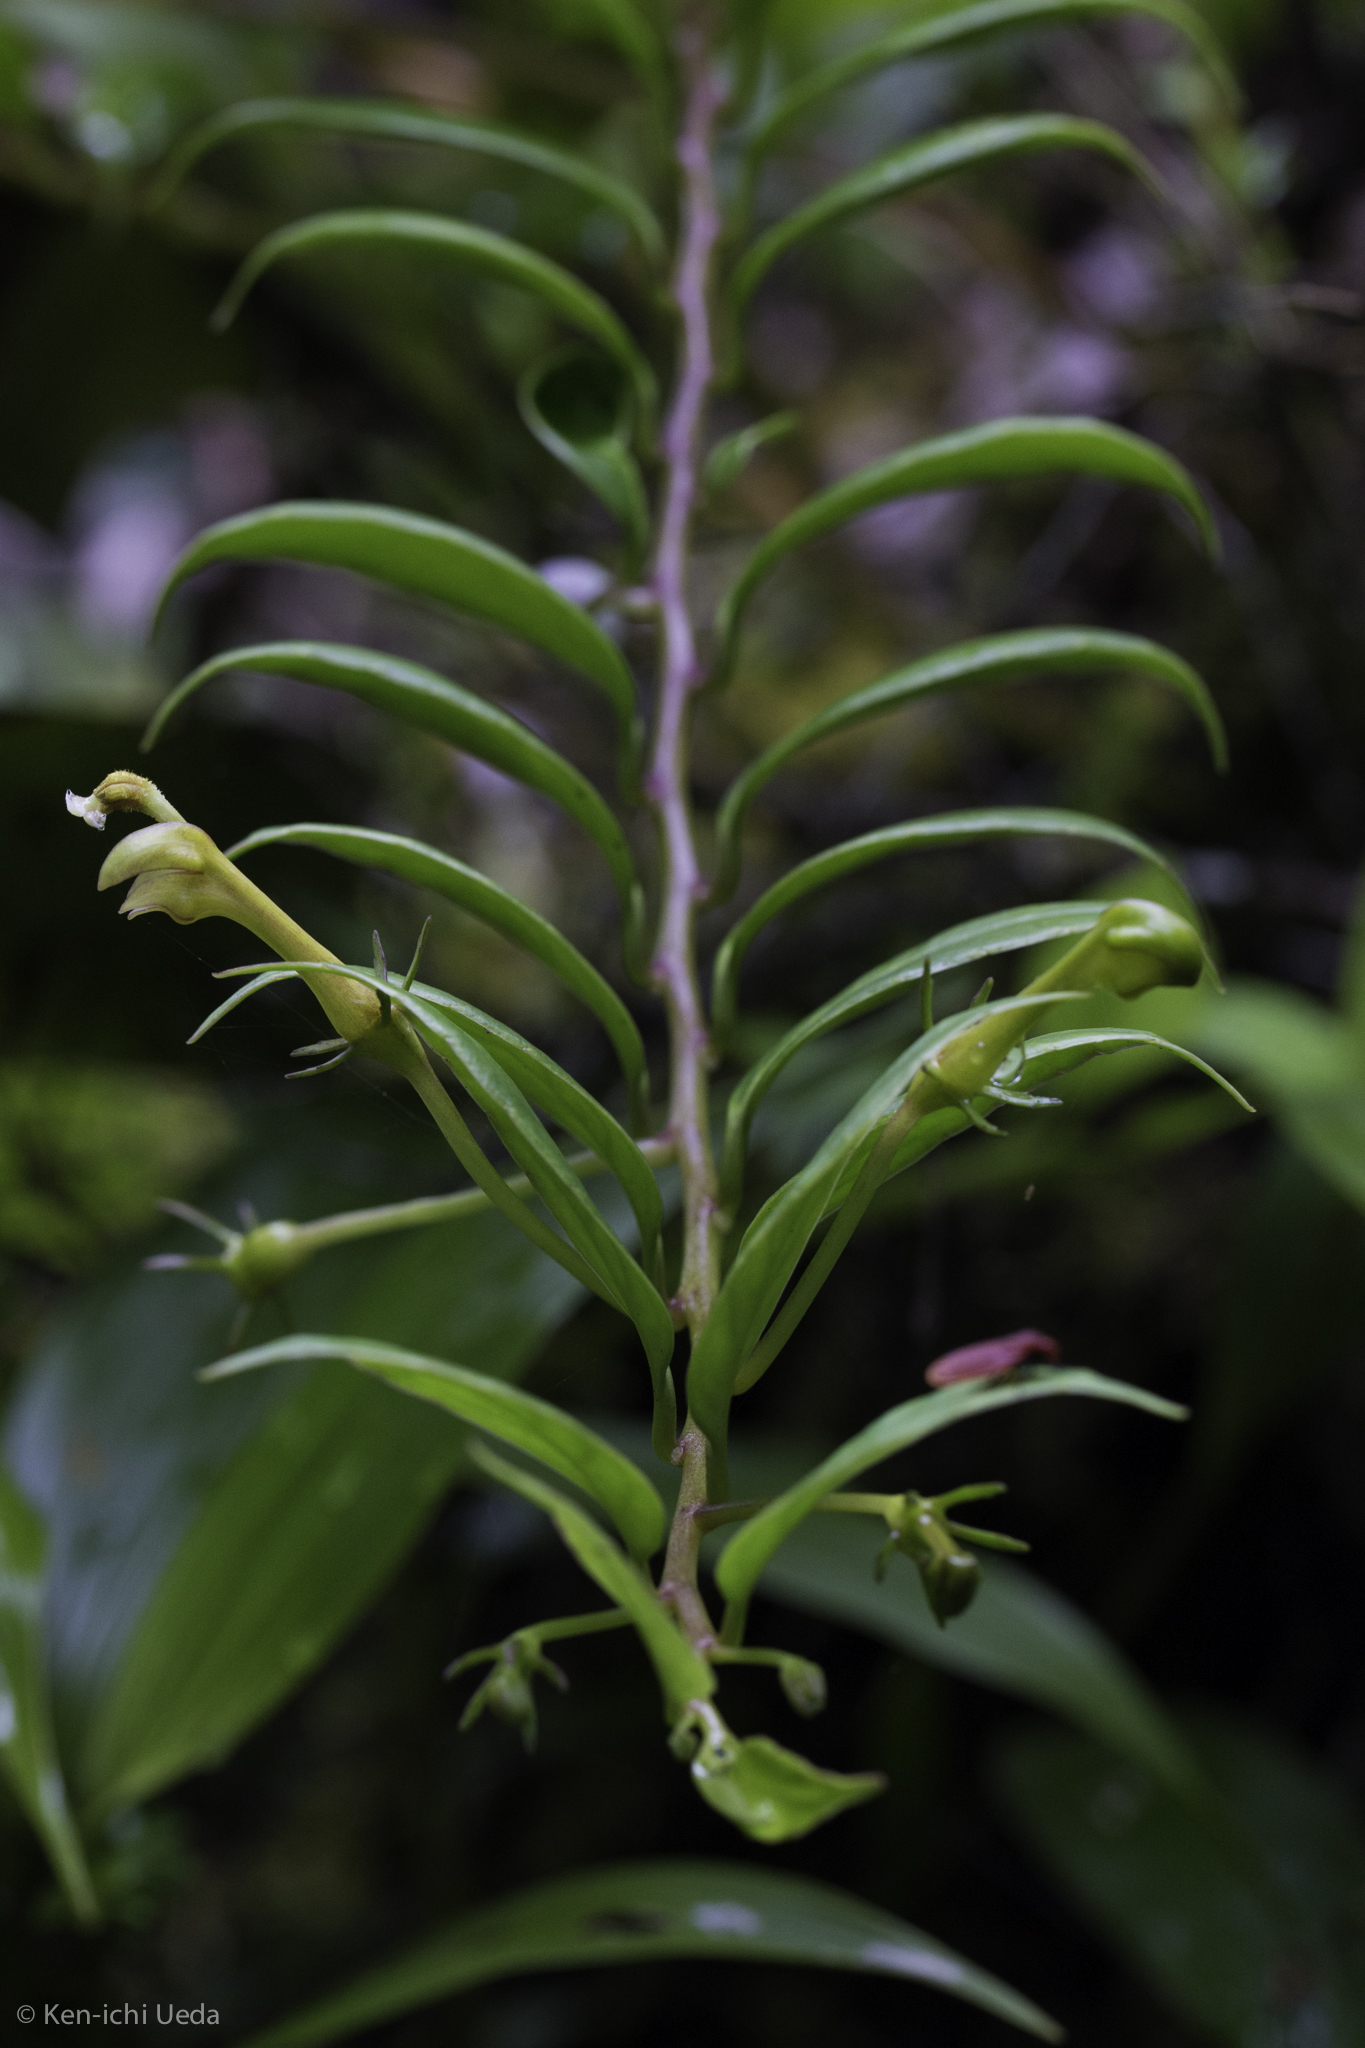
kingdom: Plantae
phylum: Tracheophyta
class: Magnoliopsida
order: Asterales
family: Campanulaceae
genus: Burmeistera
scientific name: Burmeistera microphylla
